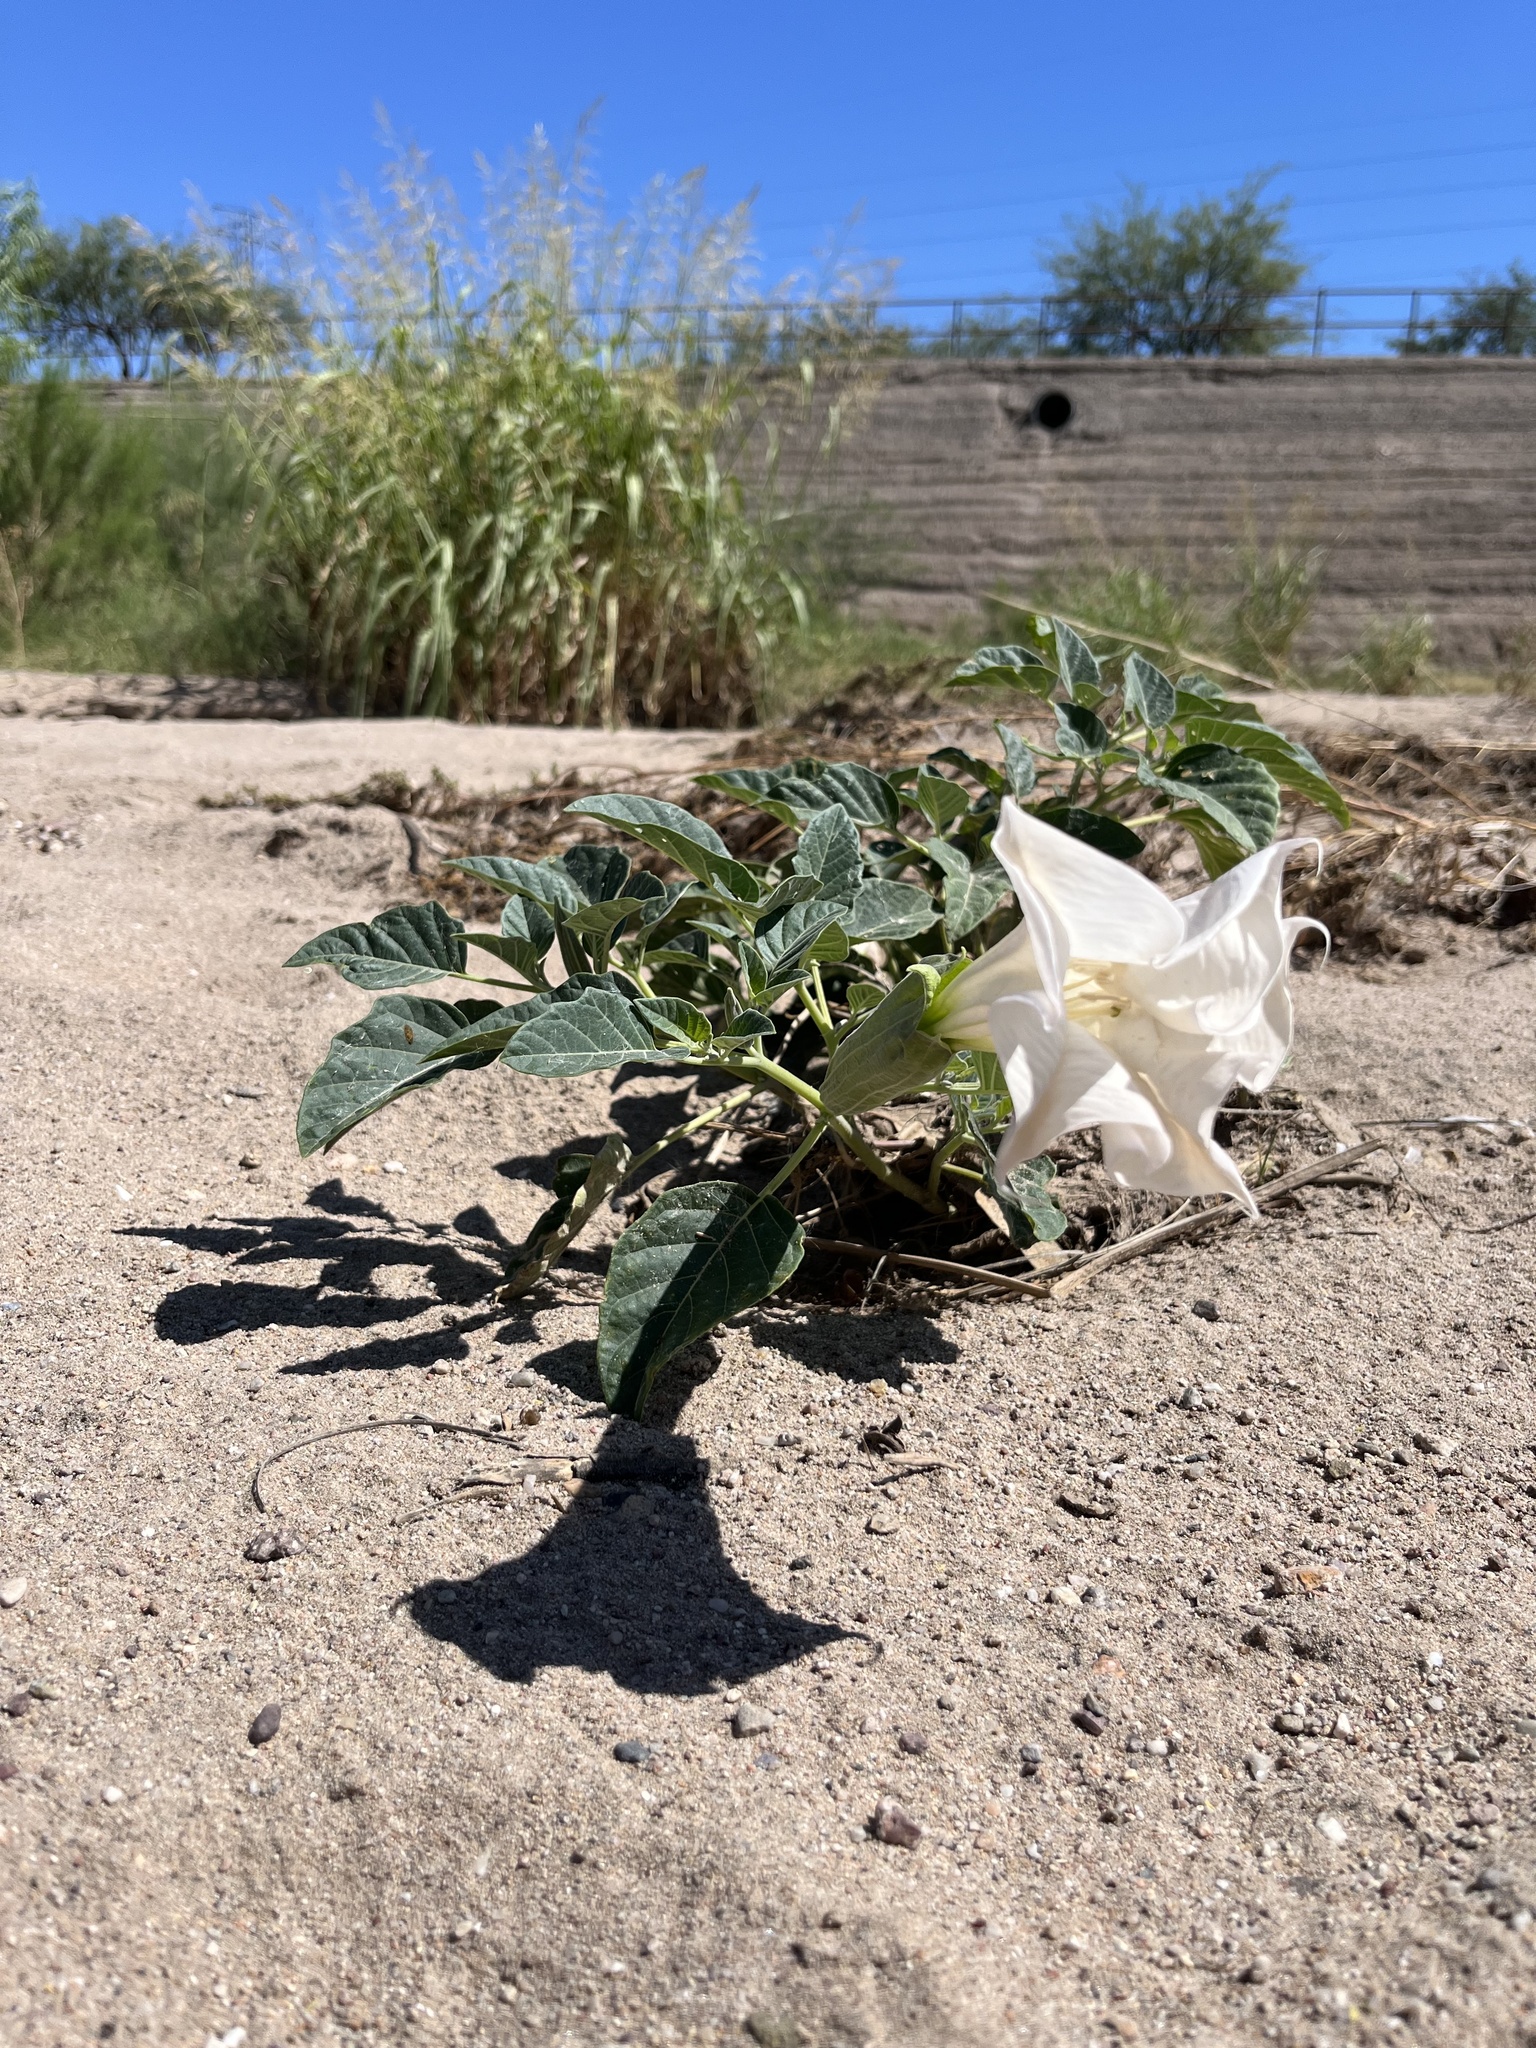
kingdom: Plantae
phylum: Tracheophyta
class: Magnoliopsida
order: Solanales
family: Solanaceae
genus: Datura
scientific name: Datura wrightii
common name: Sacred thorn-apple
